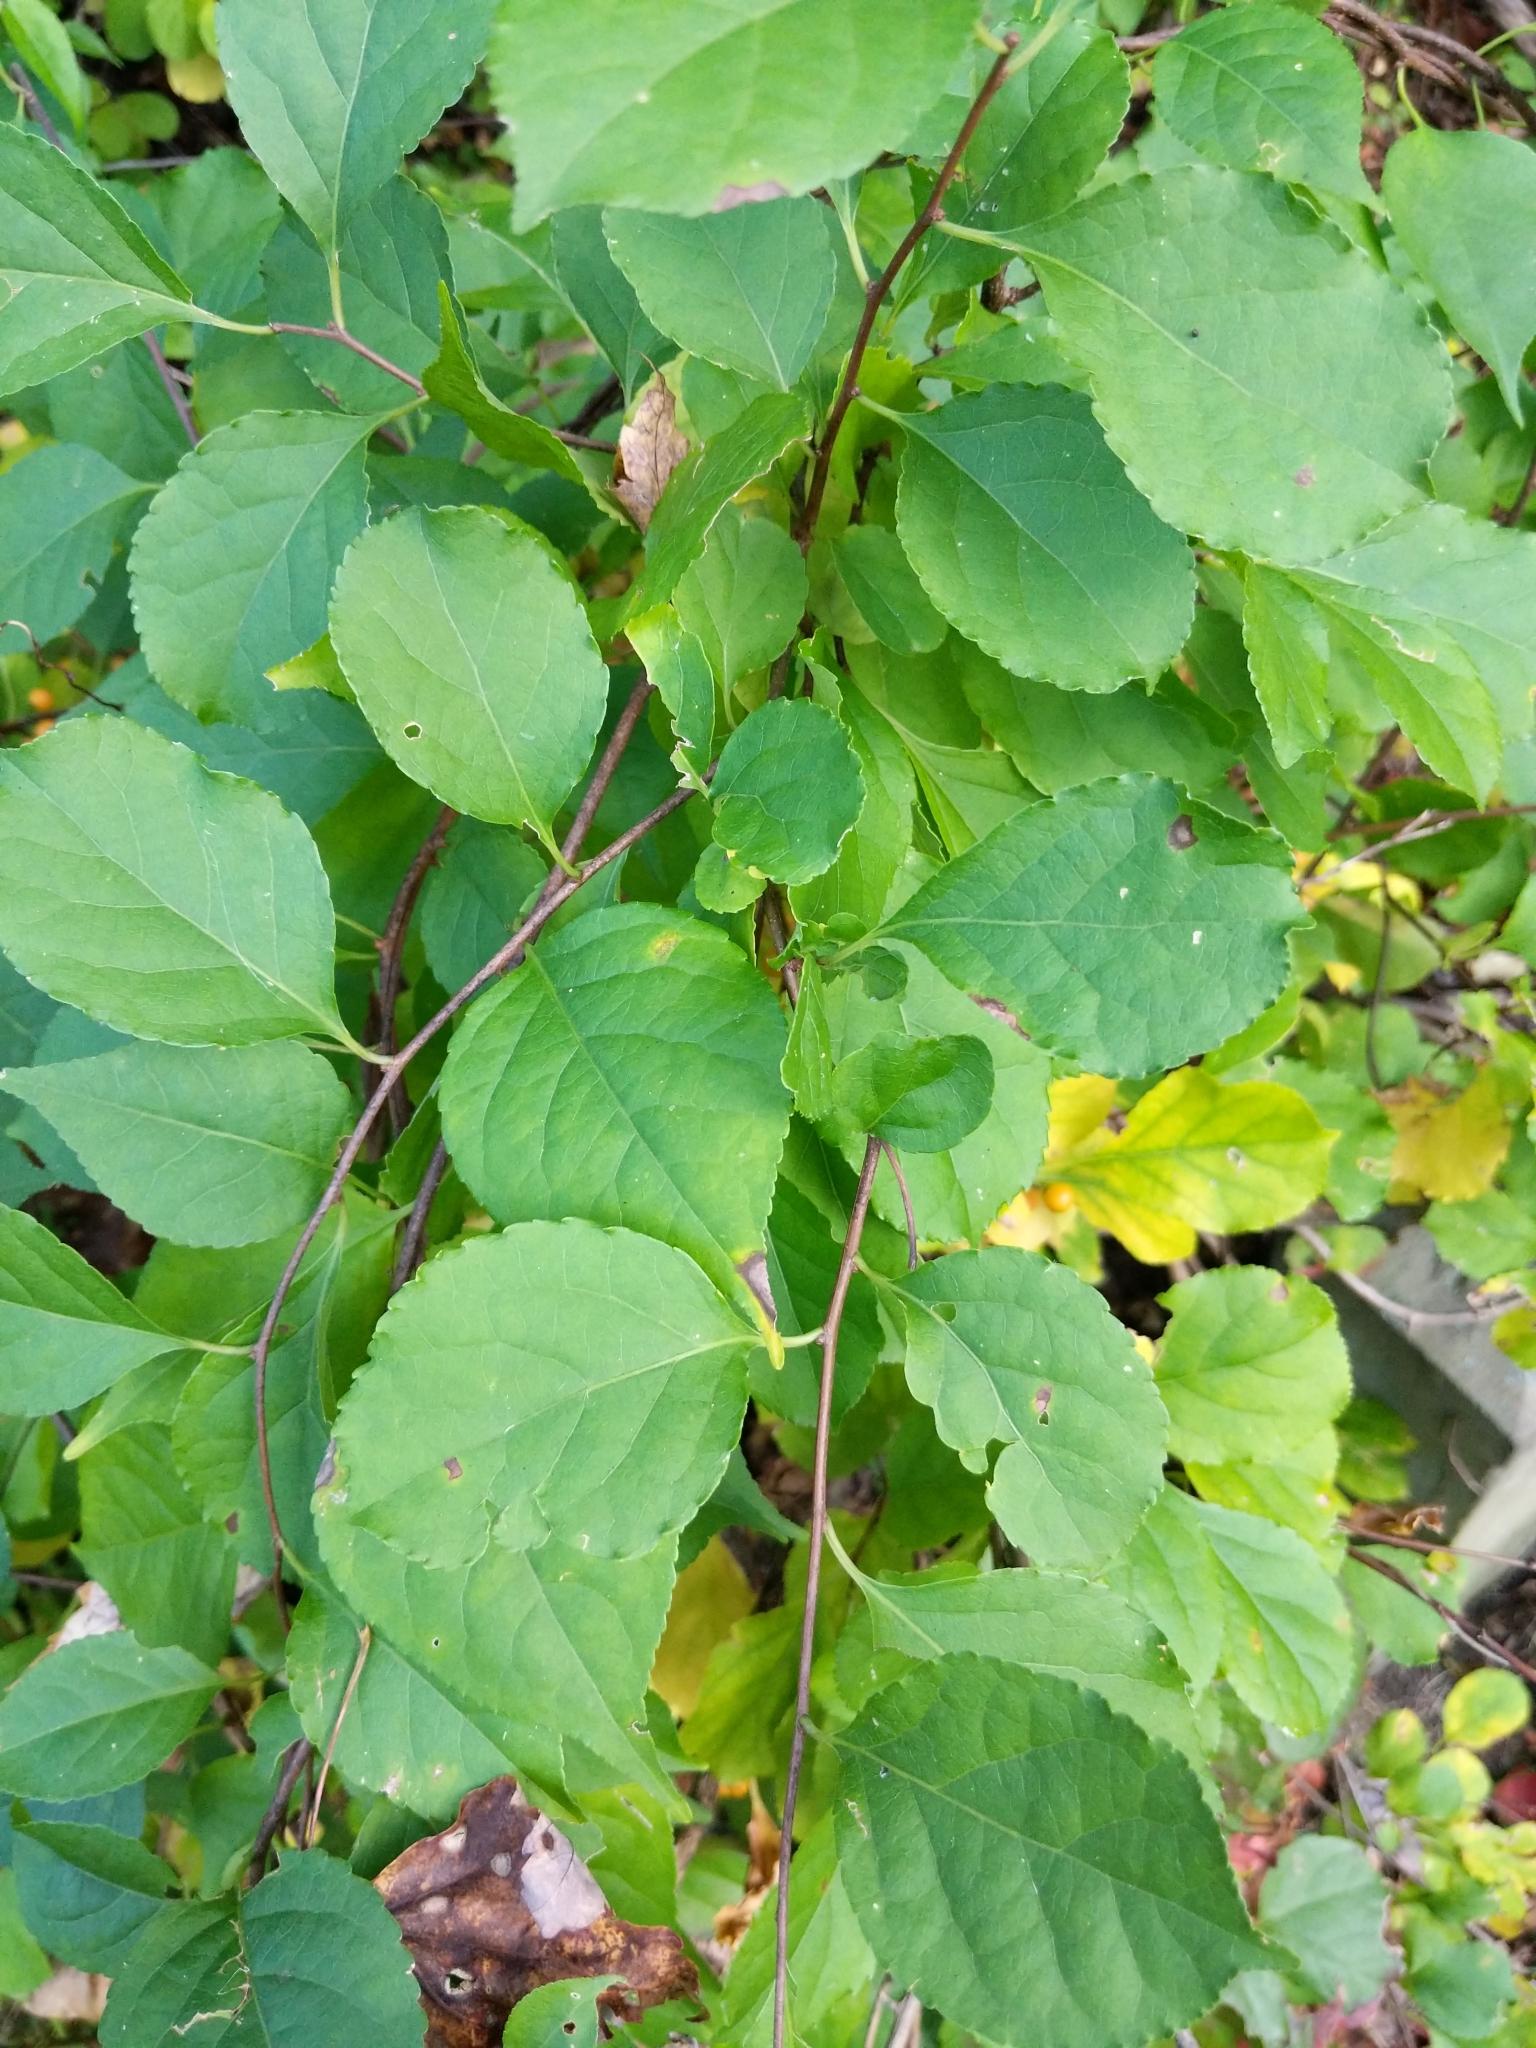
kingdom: Plantae
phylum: Tracheophyta
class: Magnoliopsida
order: Celastrales
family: Celastraceae
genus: Celastrus
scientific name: Celastrus orbiculatus
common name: Oriental bittersweet
